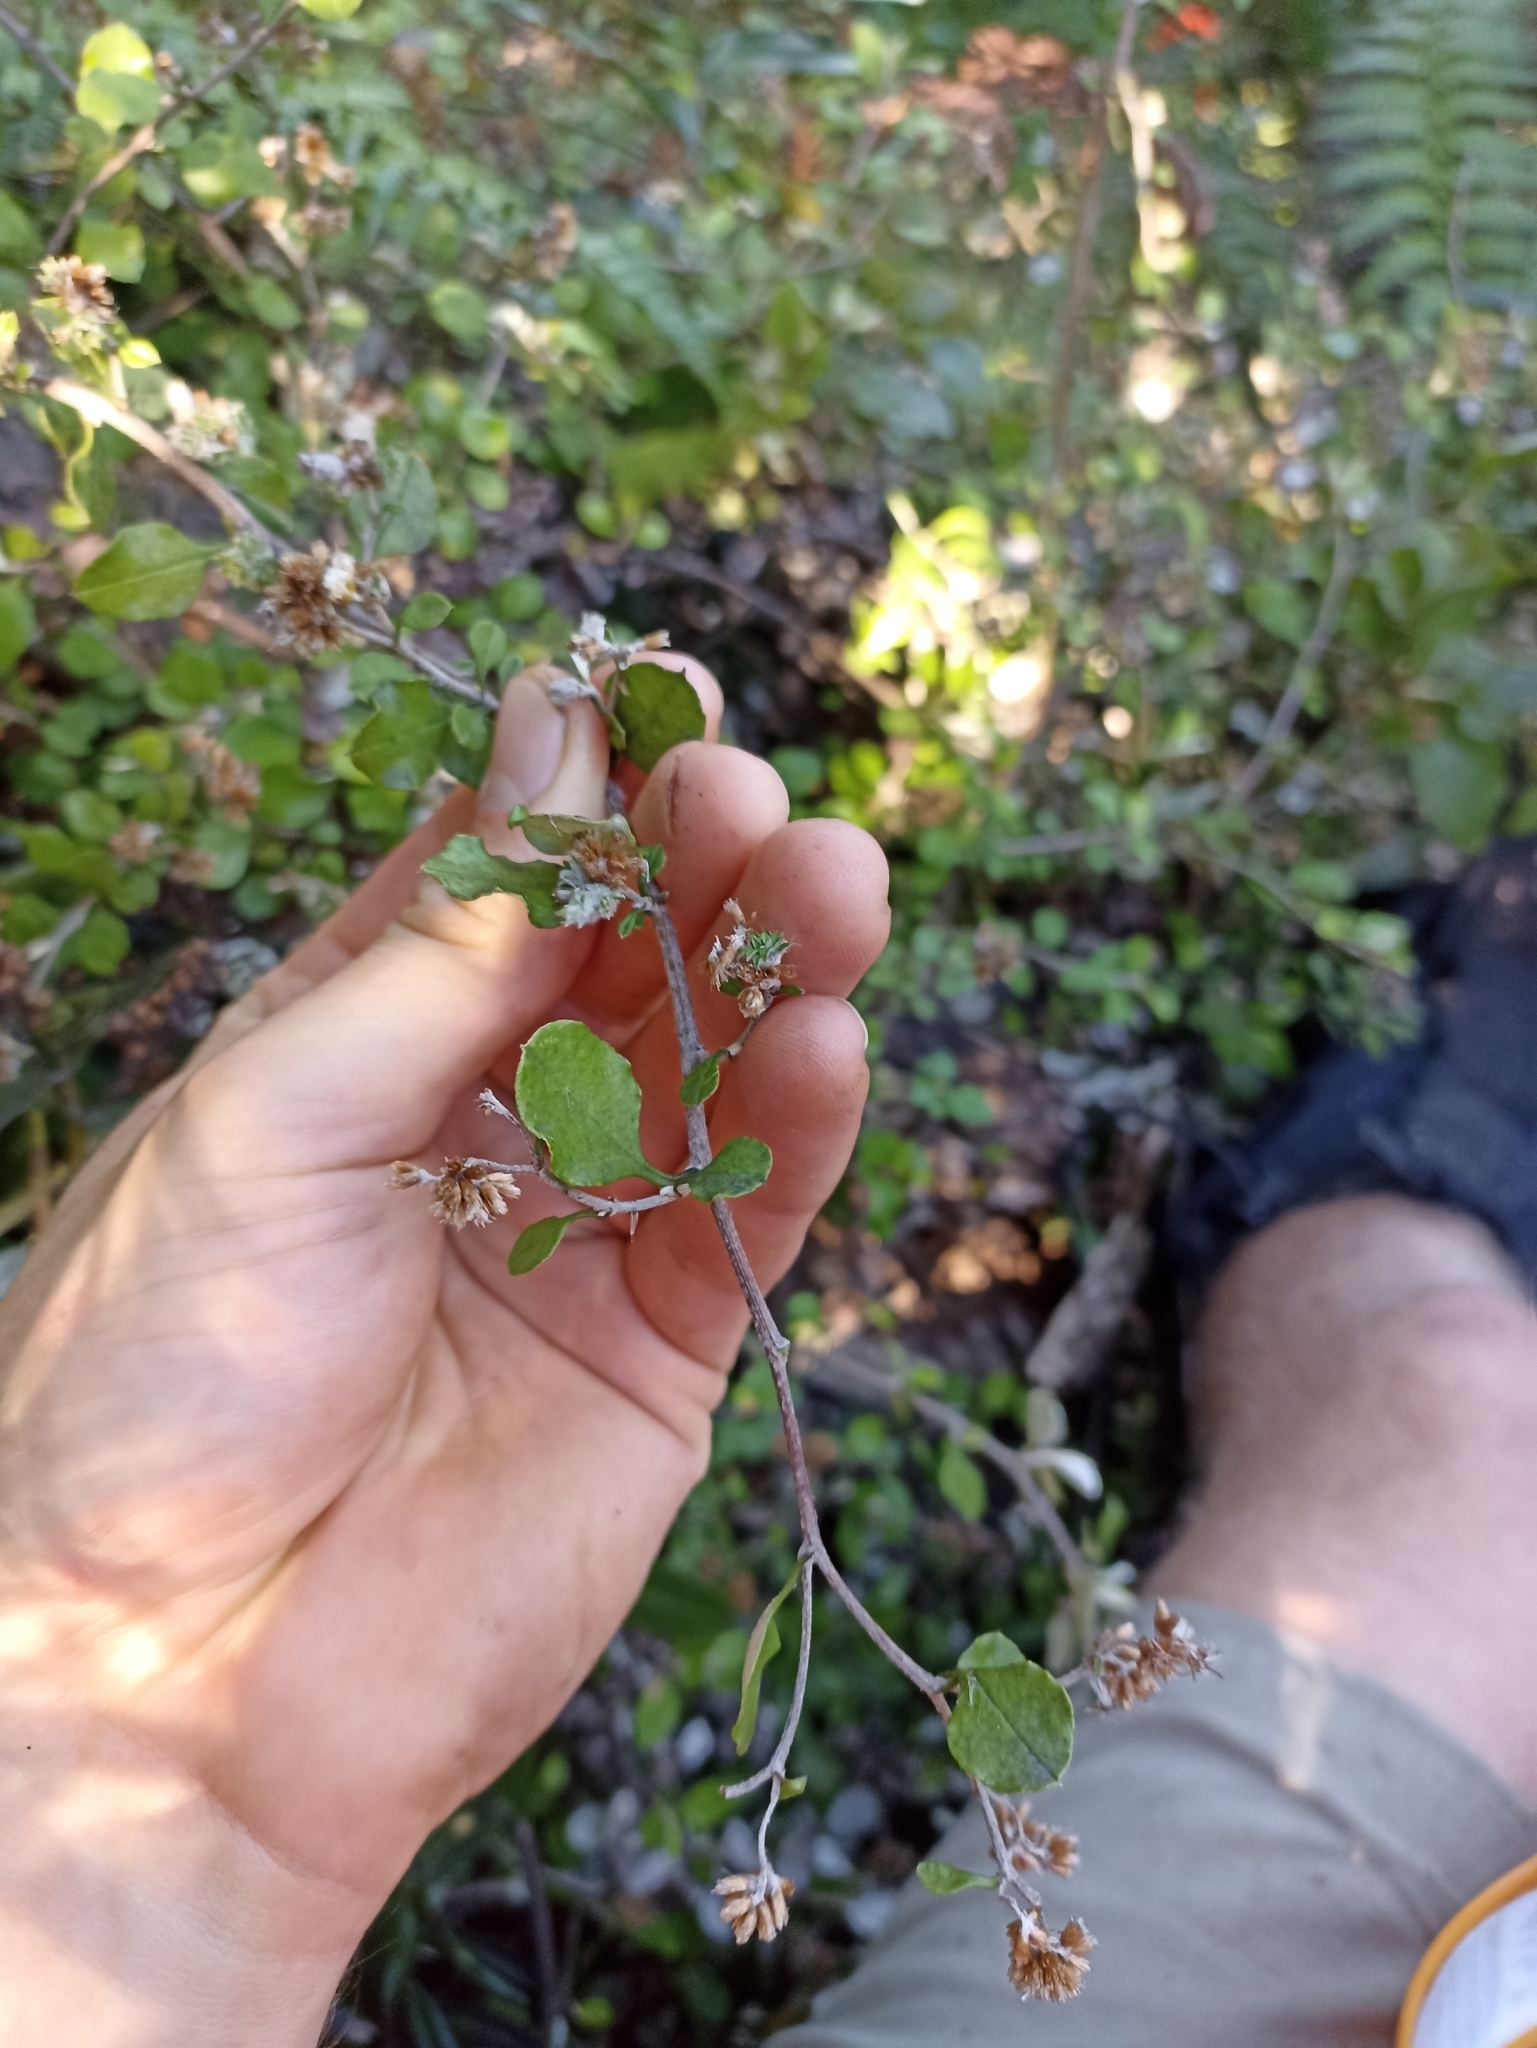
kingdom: Plantae
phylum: Tracheophyta
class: Magnoliopsida
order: Asterales
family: Asteraceae
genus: Ozothamnus
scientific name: Ozothamnus glomeratus
